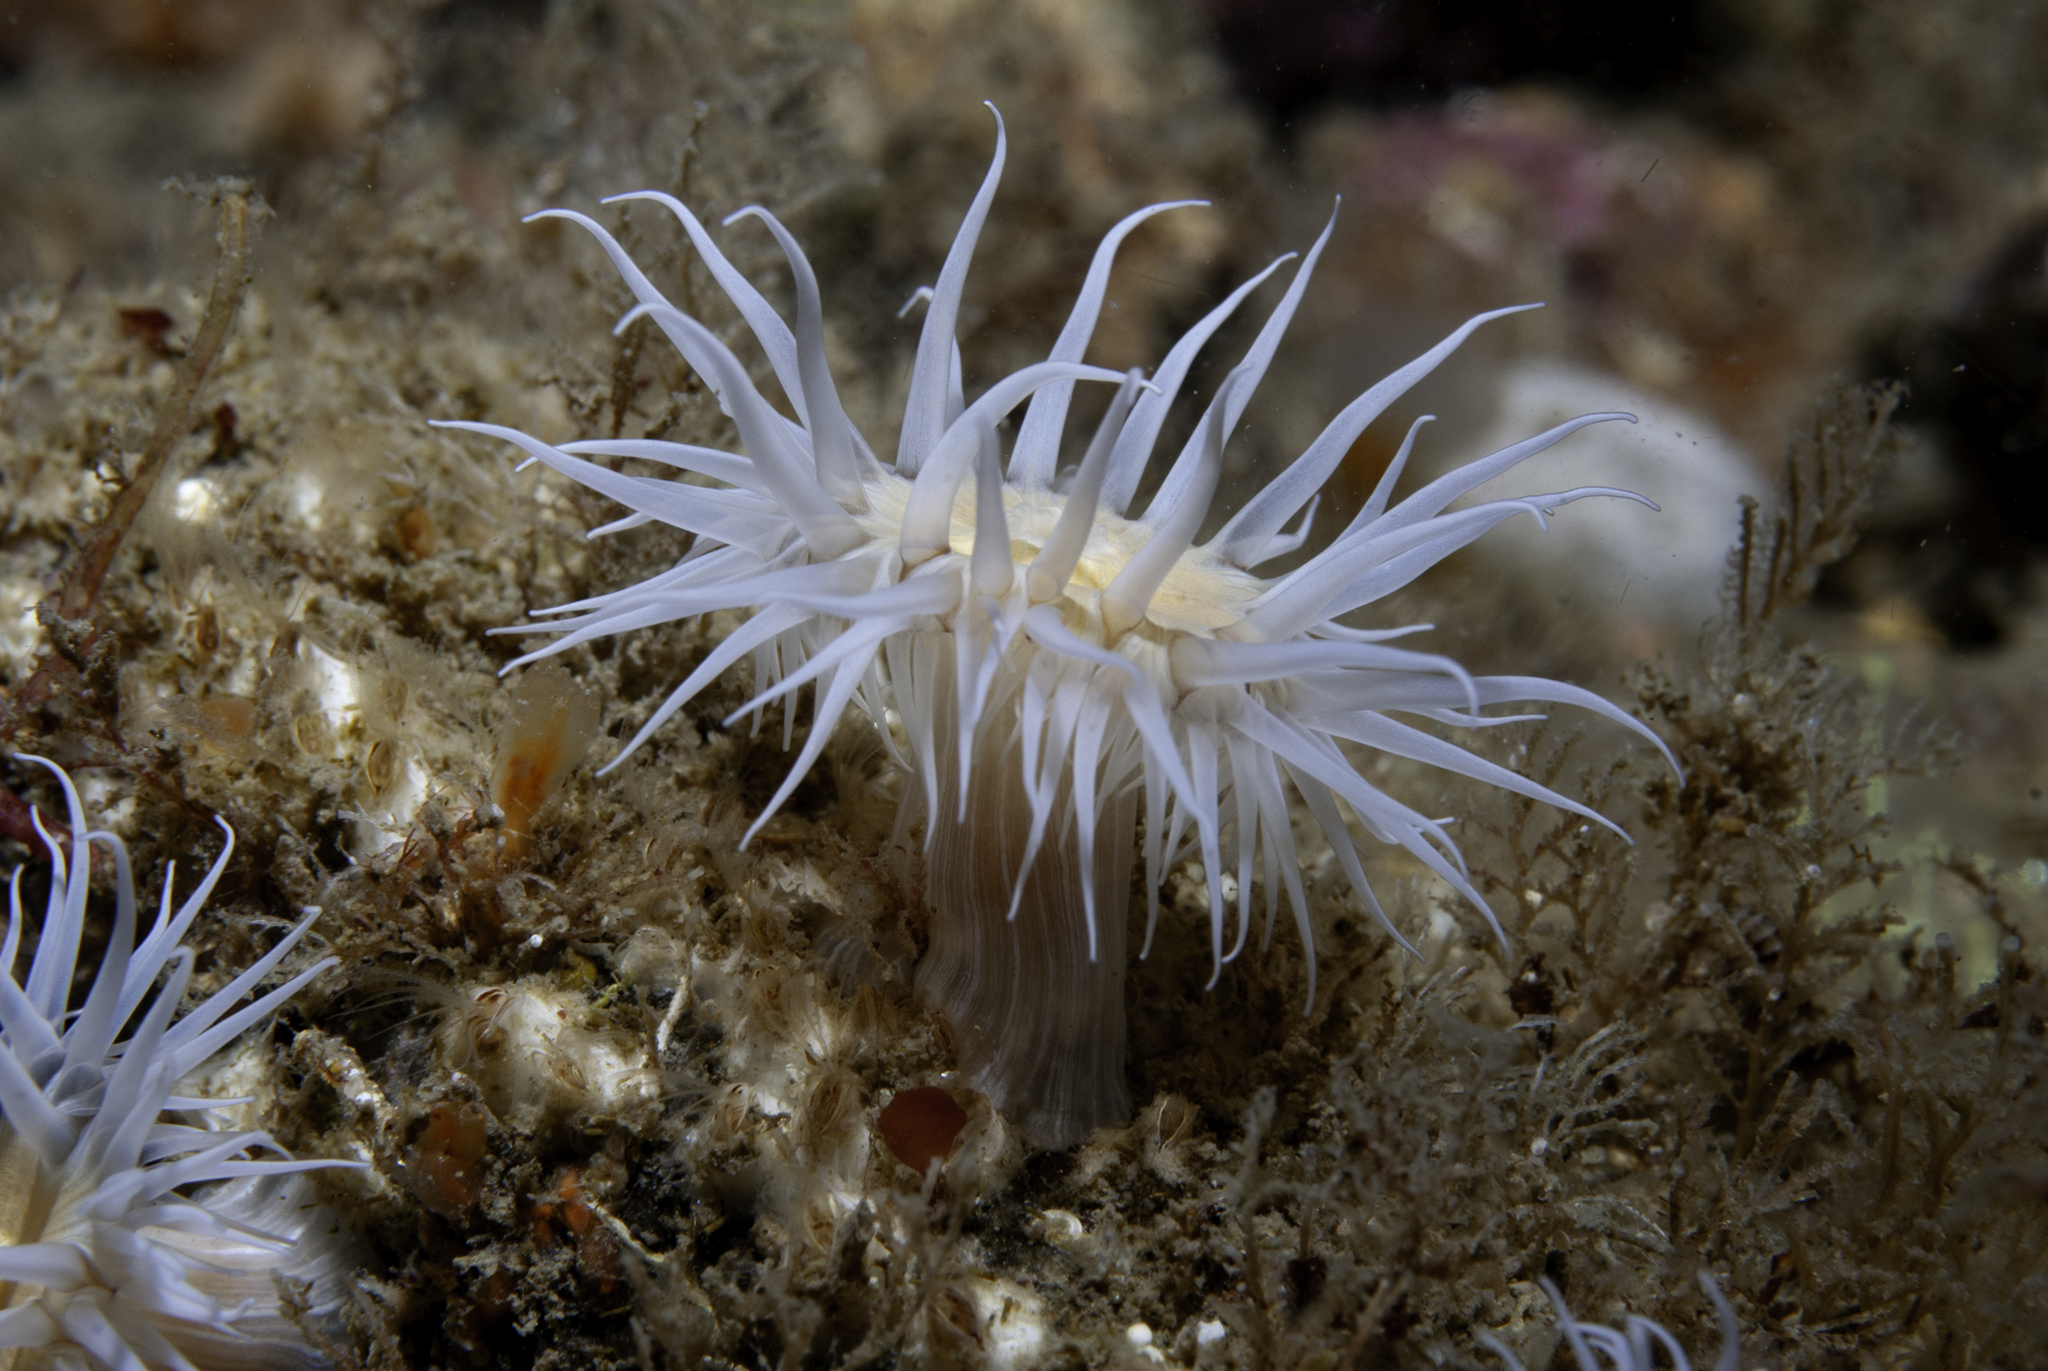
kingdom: Animalia
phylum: Cnidaria
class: Anthozoa
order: Actiniaria
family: Sagartiidae
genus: Actinothoe
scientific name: Actinothoe sphyrodeta
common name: Sandalled anemone
